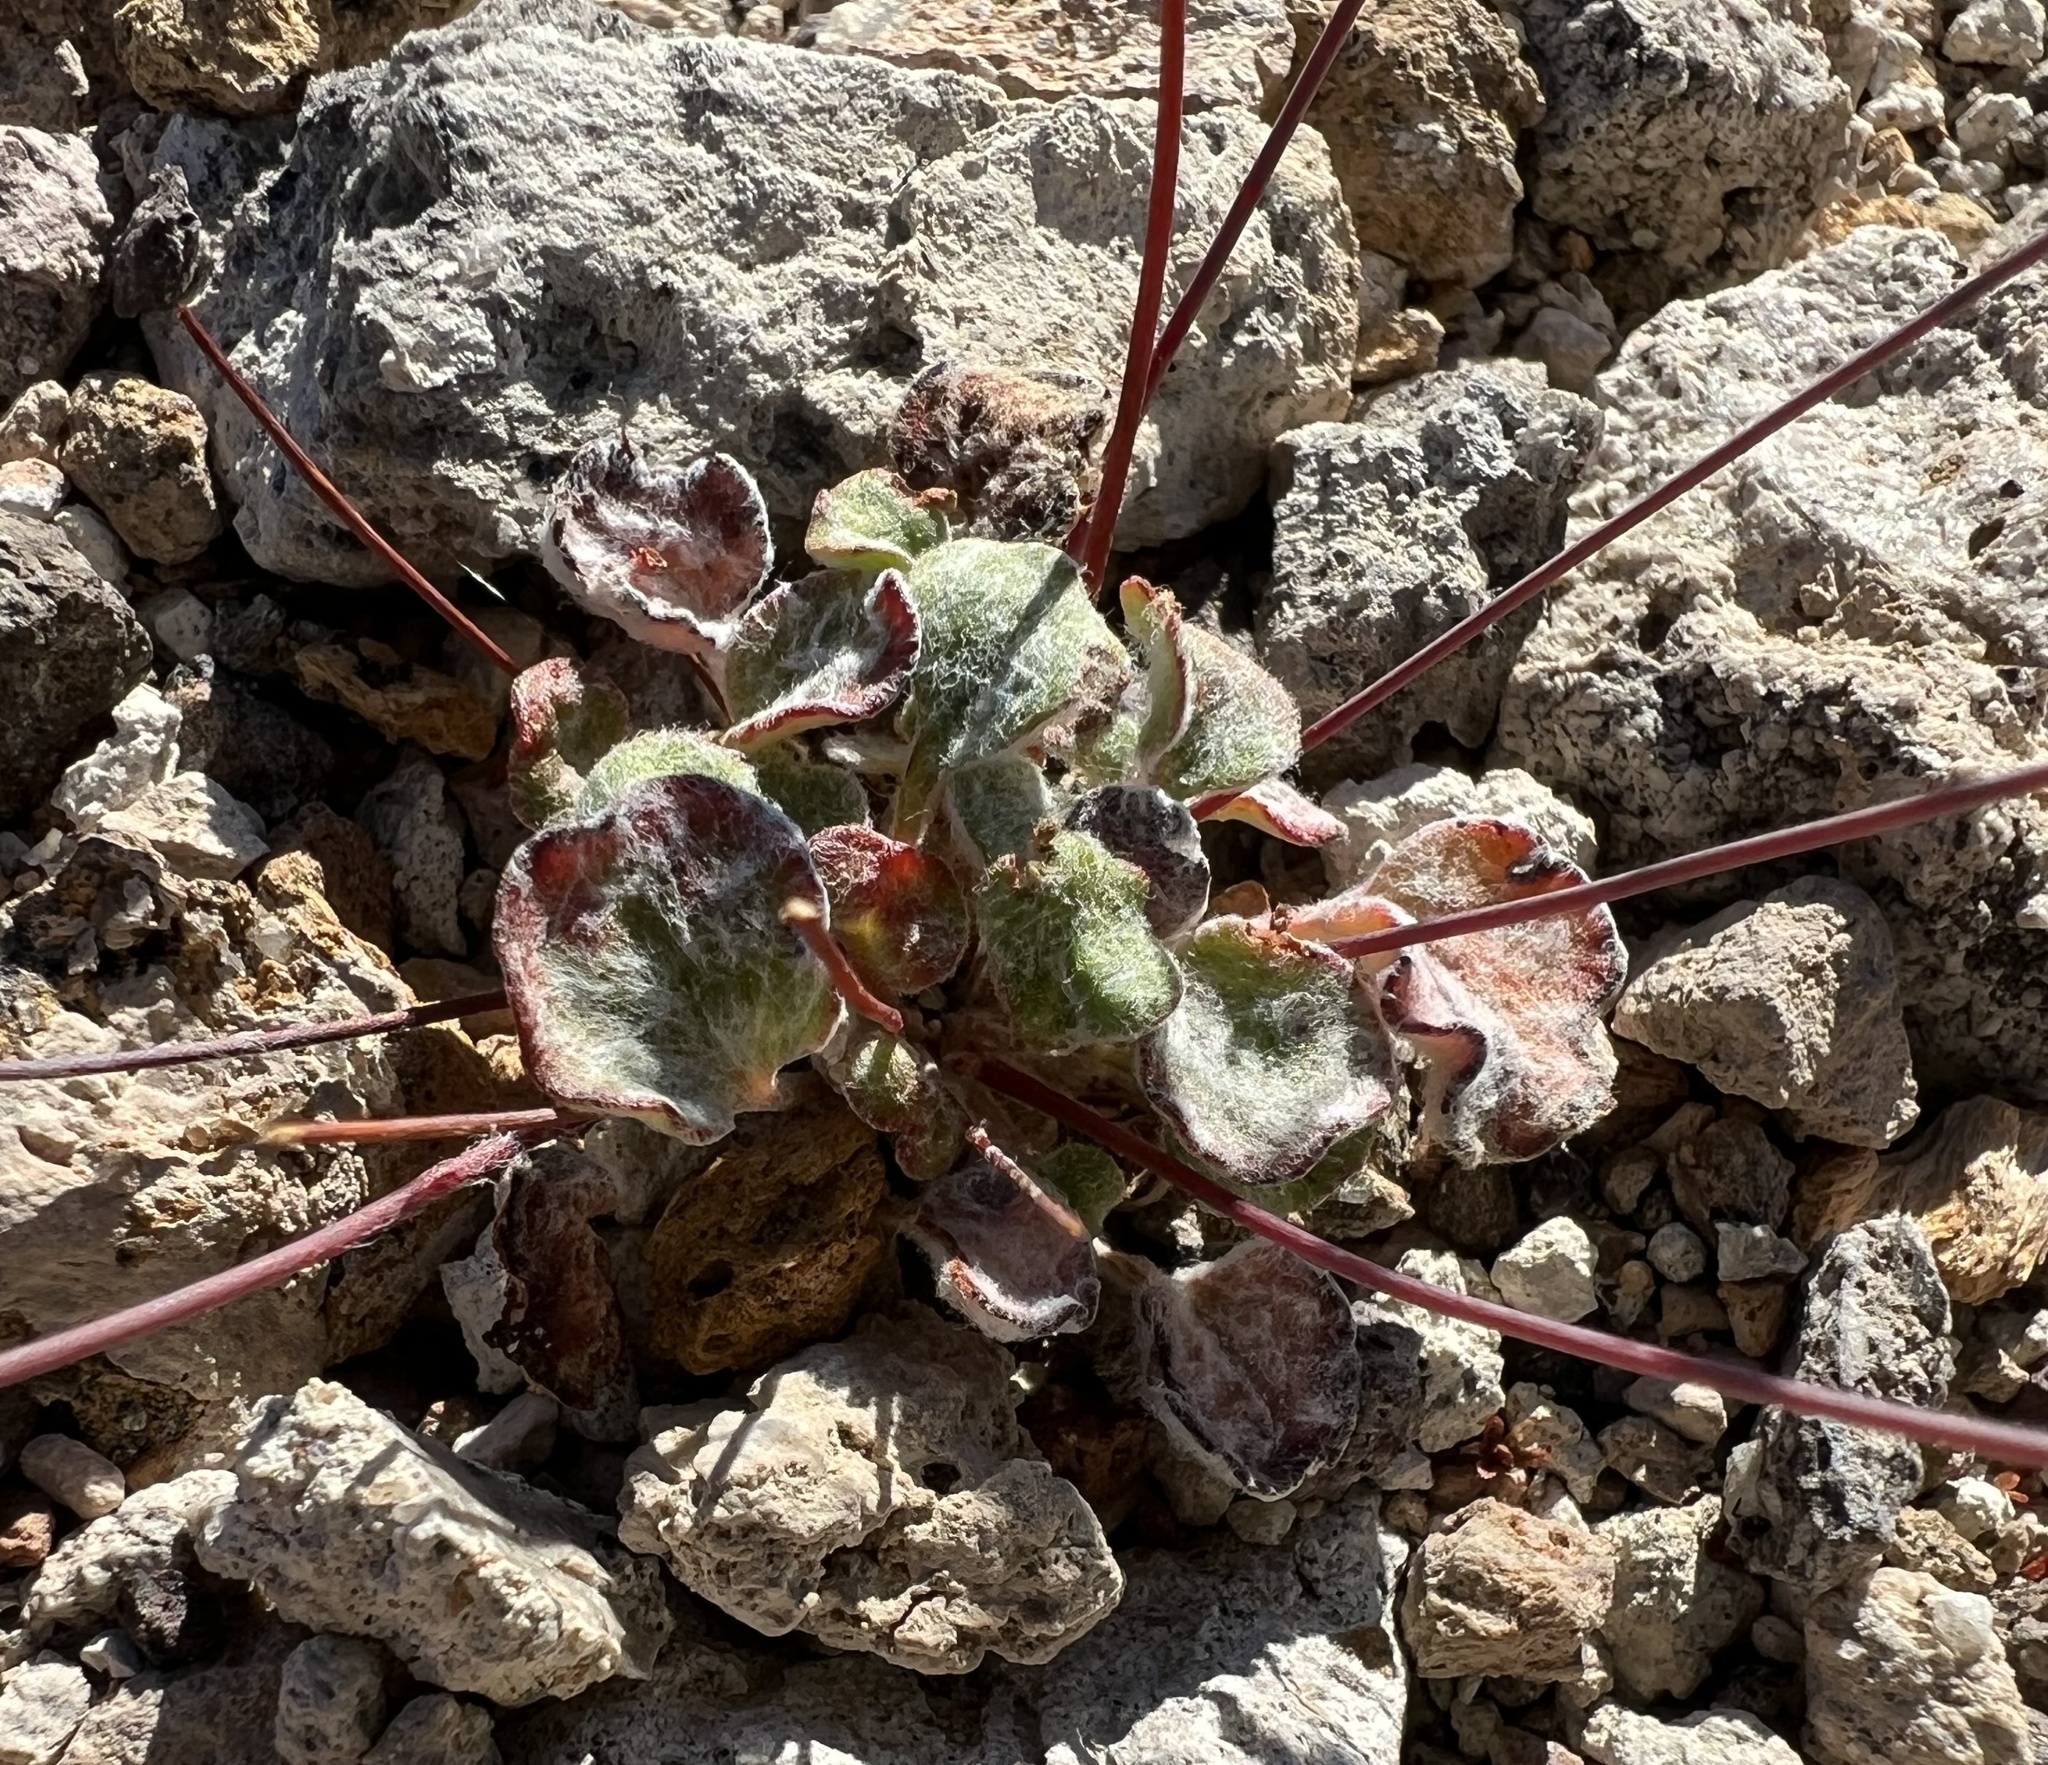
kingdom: Plantae
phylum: Tracheophyta
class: Magnoliopsida
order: Caryophyllales
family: Polygonaceae
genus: Eriogonum
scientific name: Eriogonum pusillum
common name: Yellow turbans
